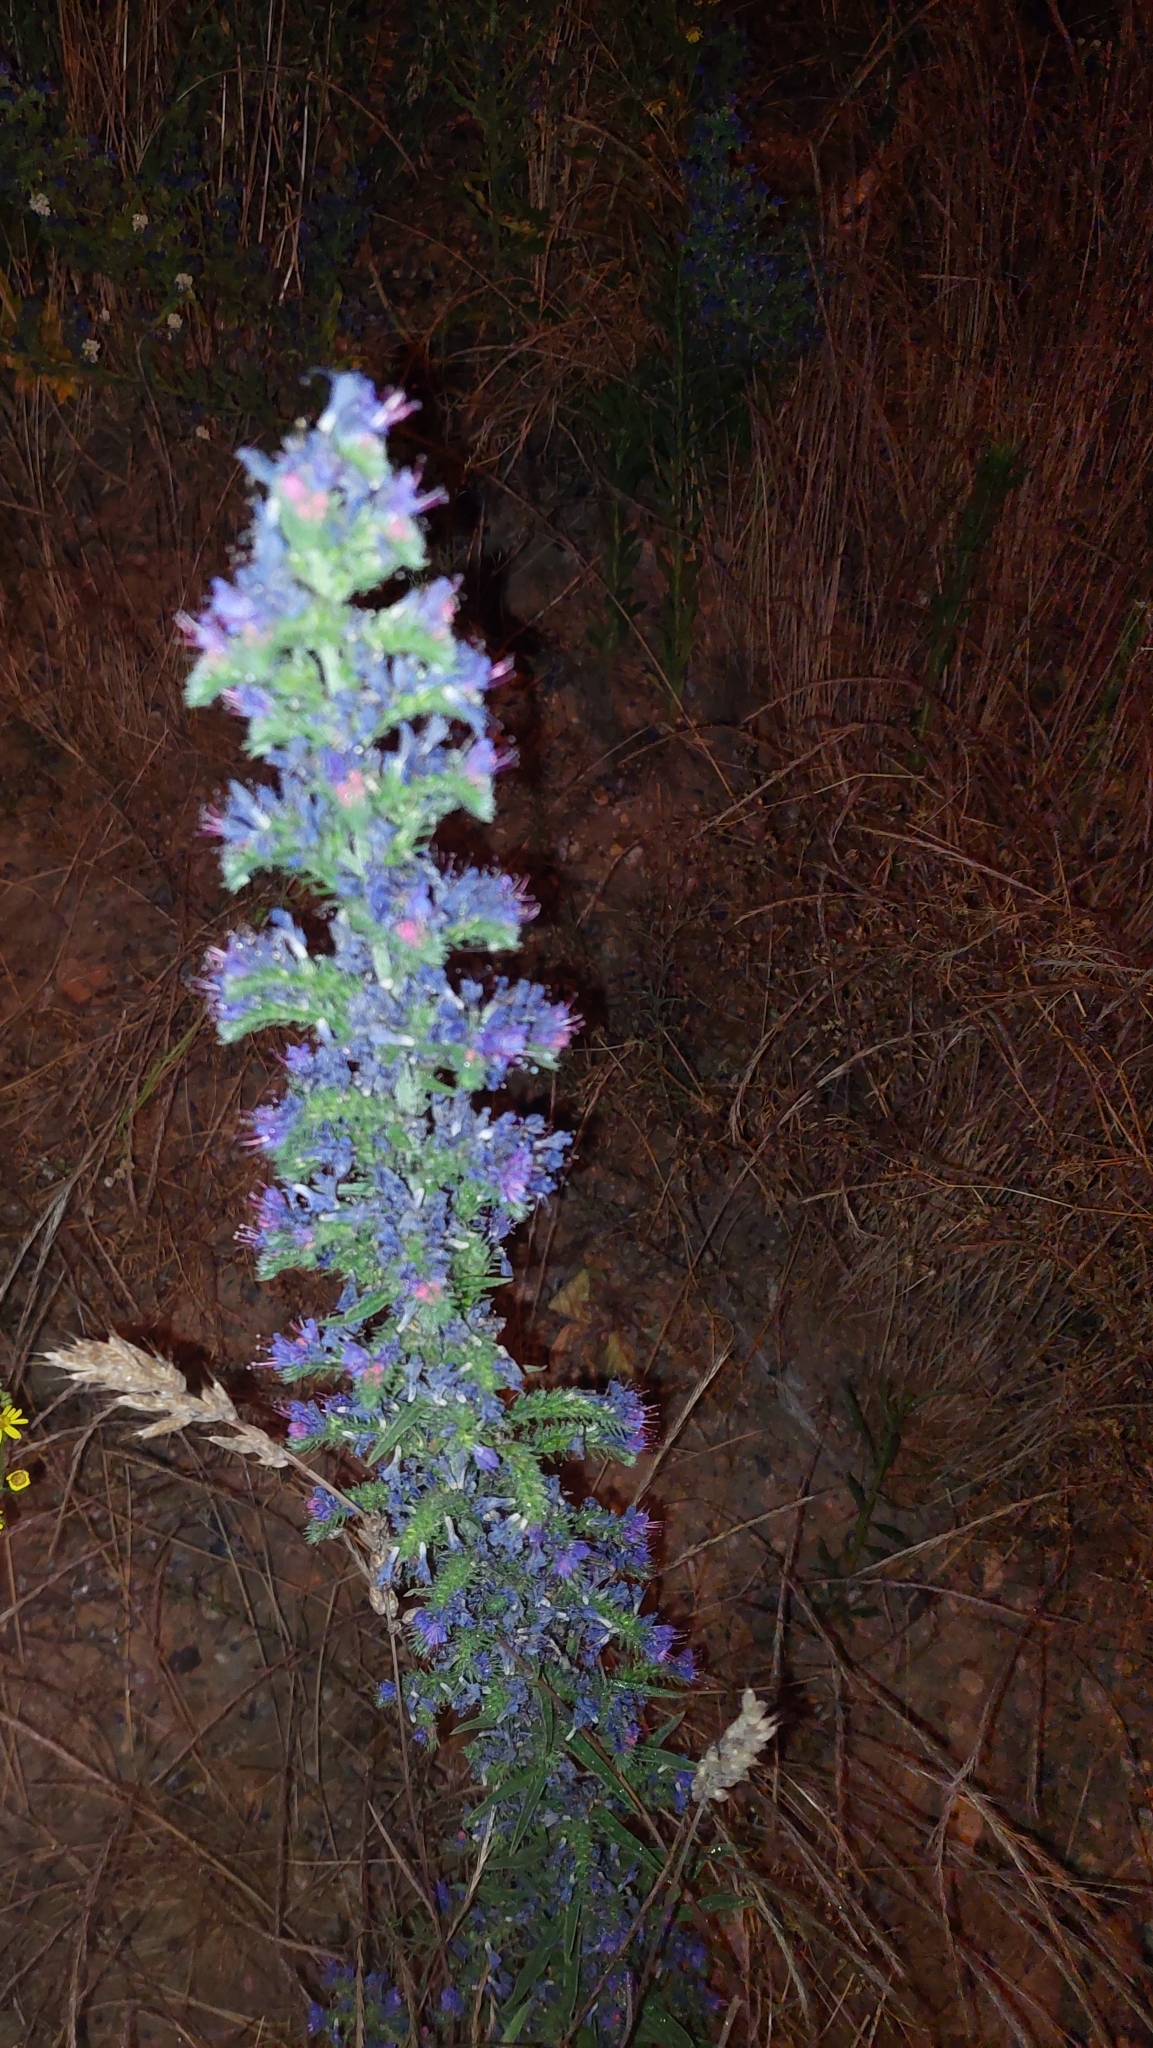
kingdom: Plantae
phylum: Tracheophyta
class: Magnoliopsida
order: Boraginales
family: Boraginaceae
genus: Echium
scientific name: Echium vulgare
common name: Common viper's bugloss
